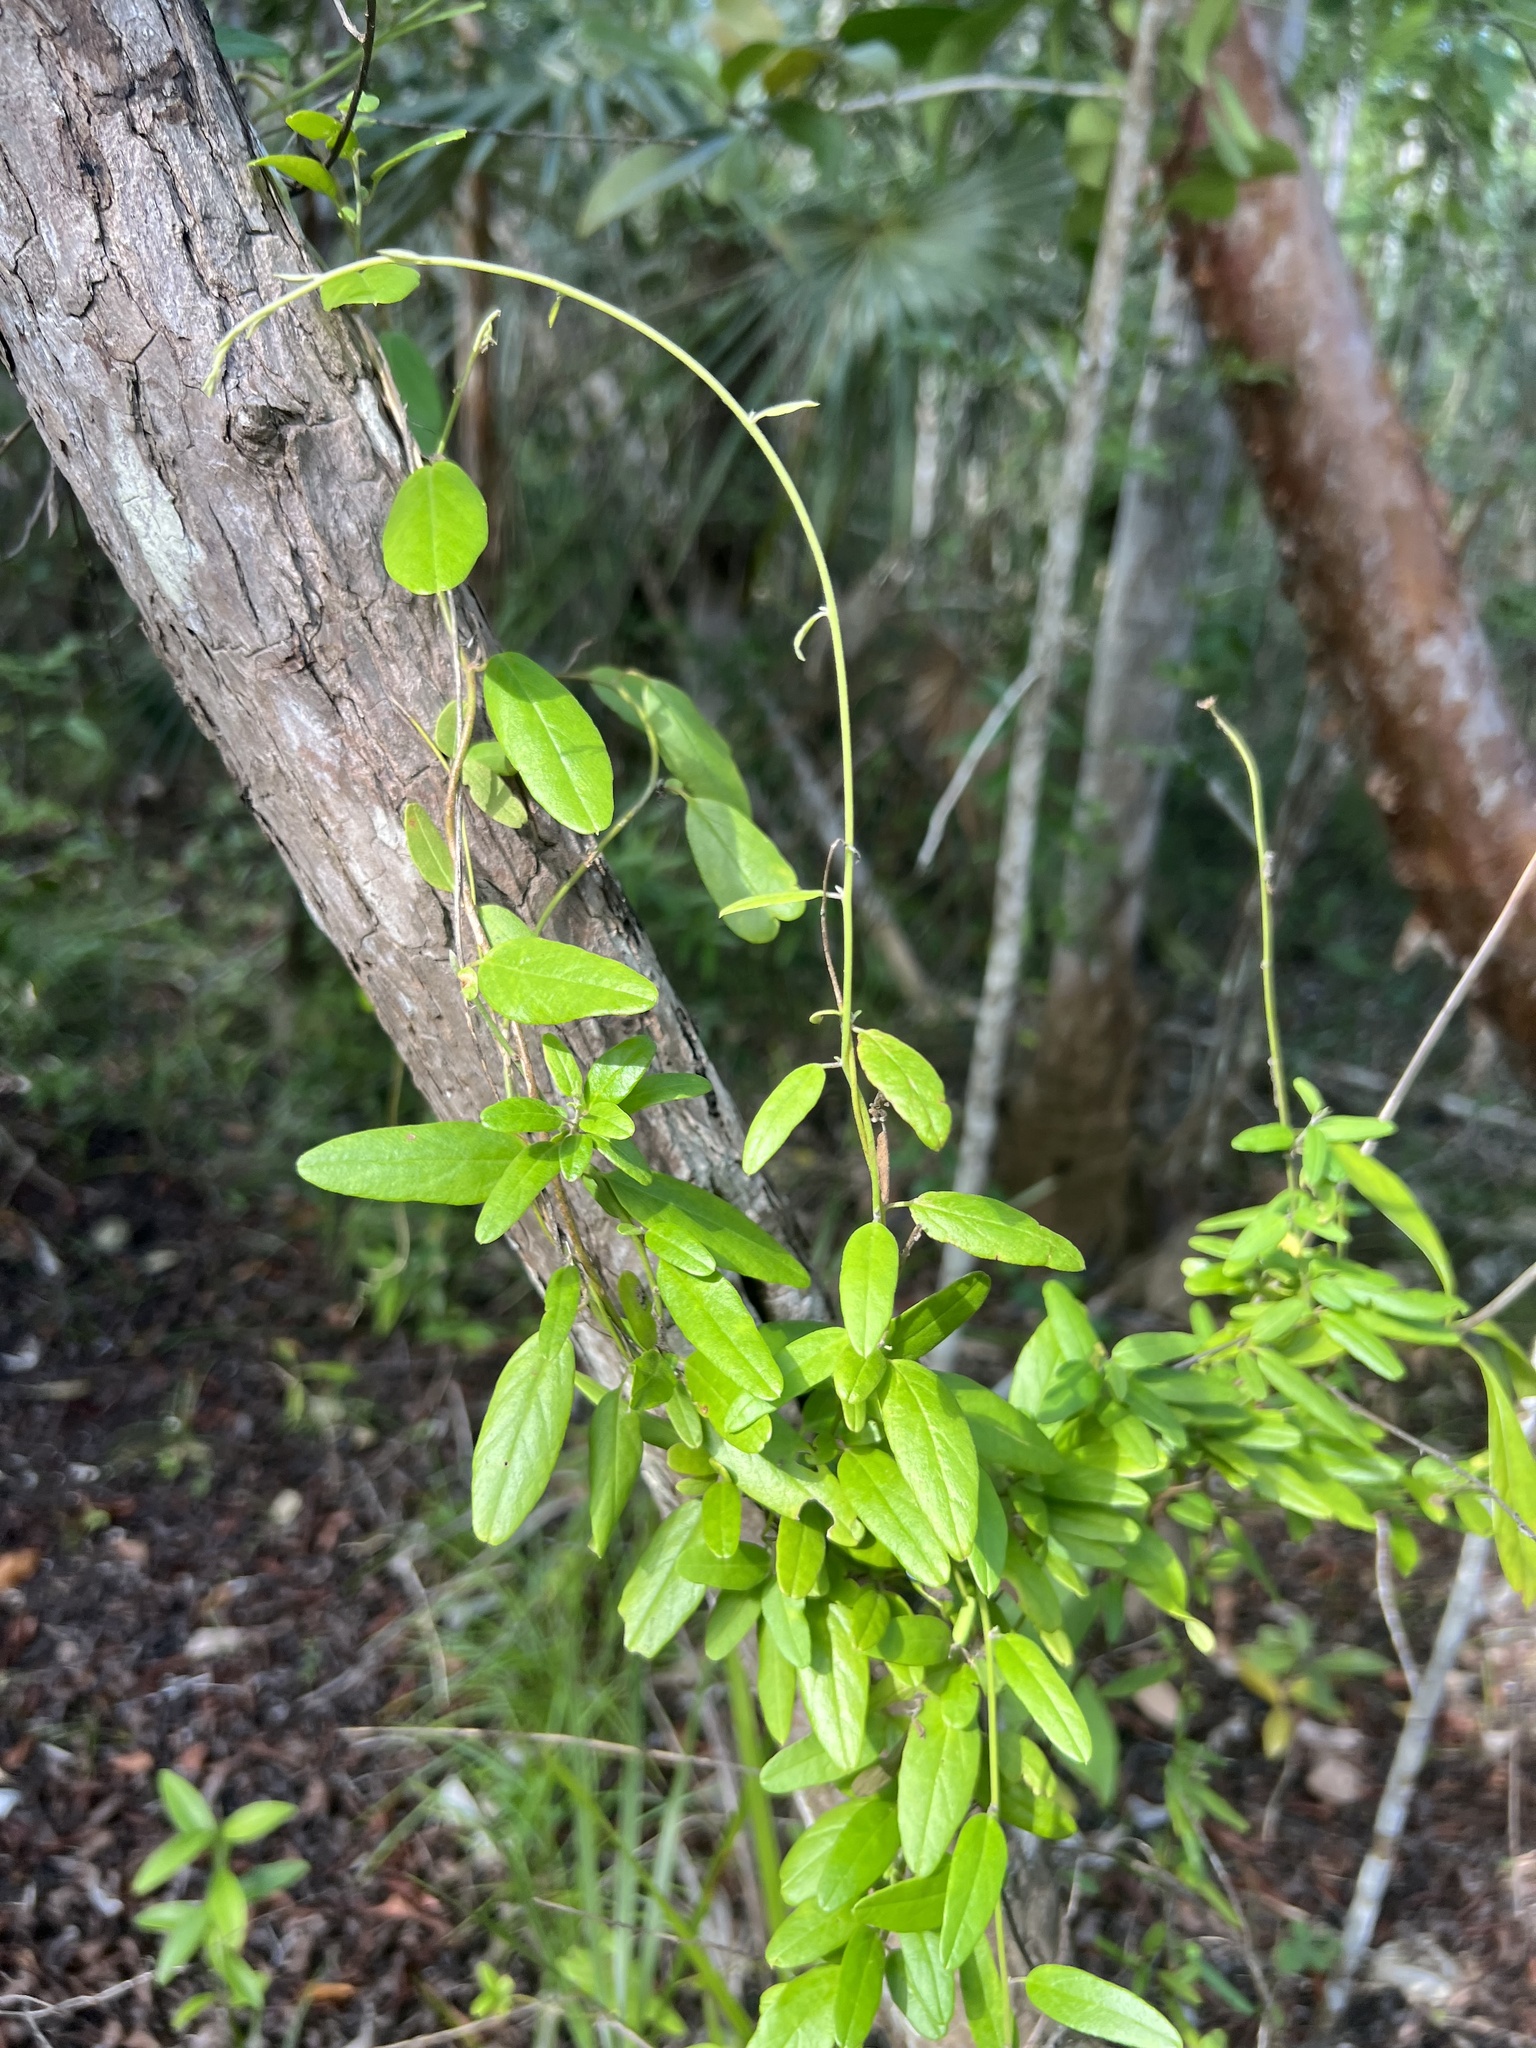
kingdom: Plantae
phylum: Tracheophyta
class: Magnoliopsida
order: Solanales
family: Convolvulaceae
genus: Jacquemontia
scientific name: Jacquemontia havanensis
